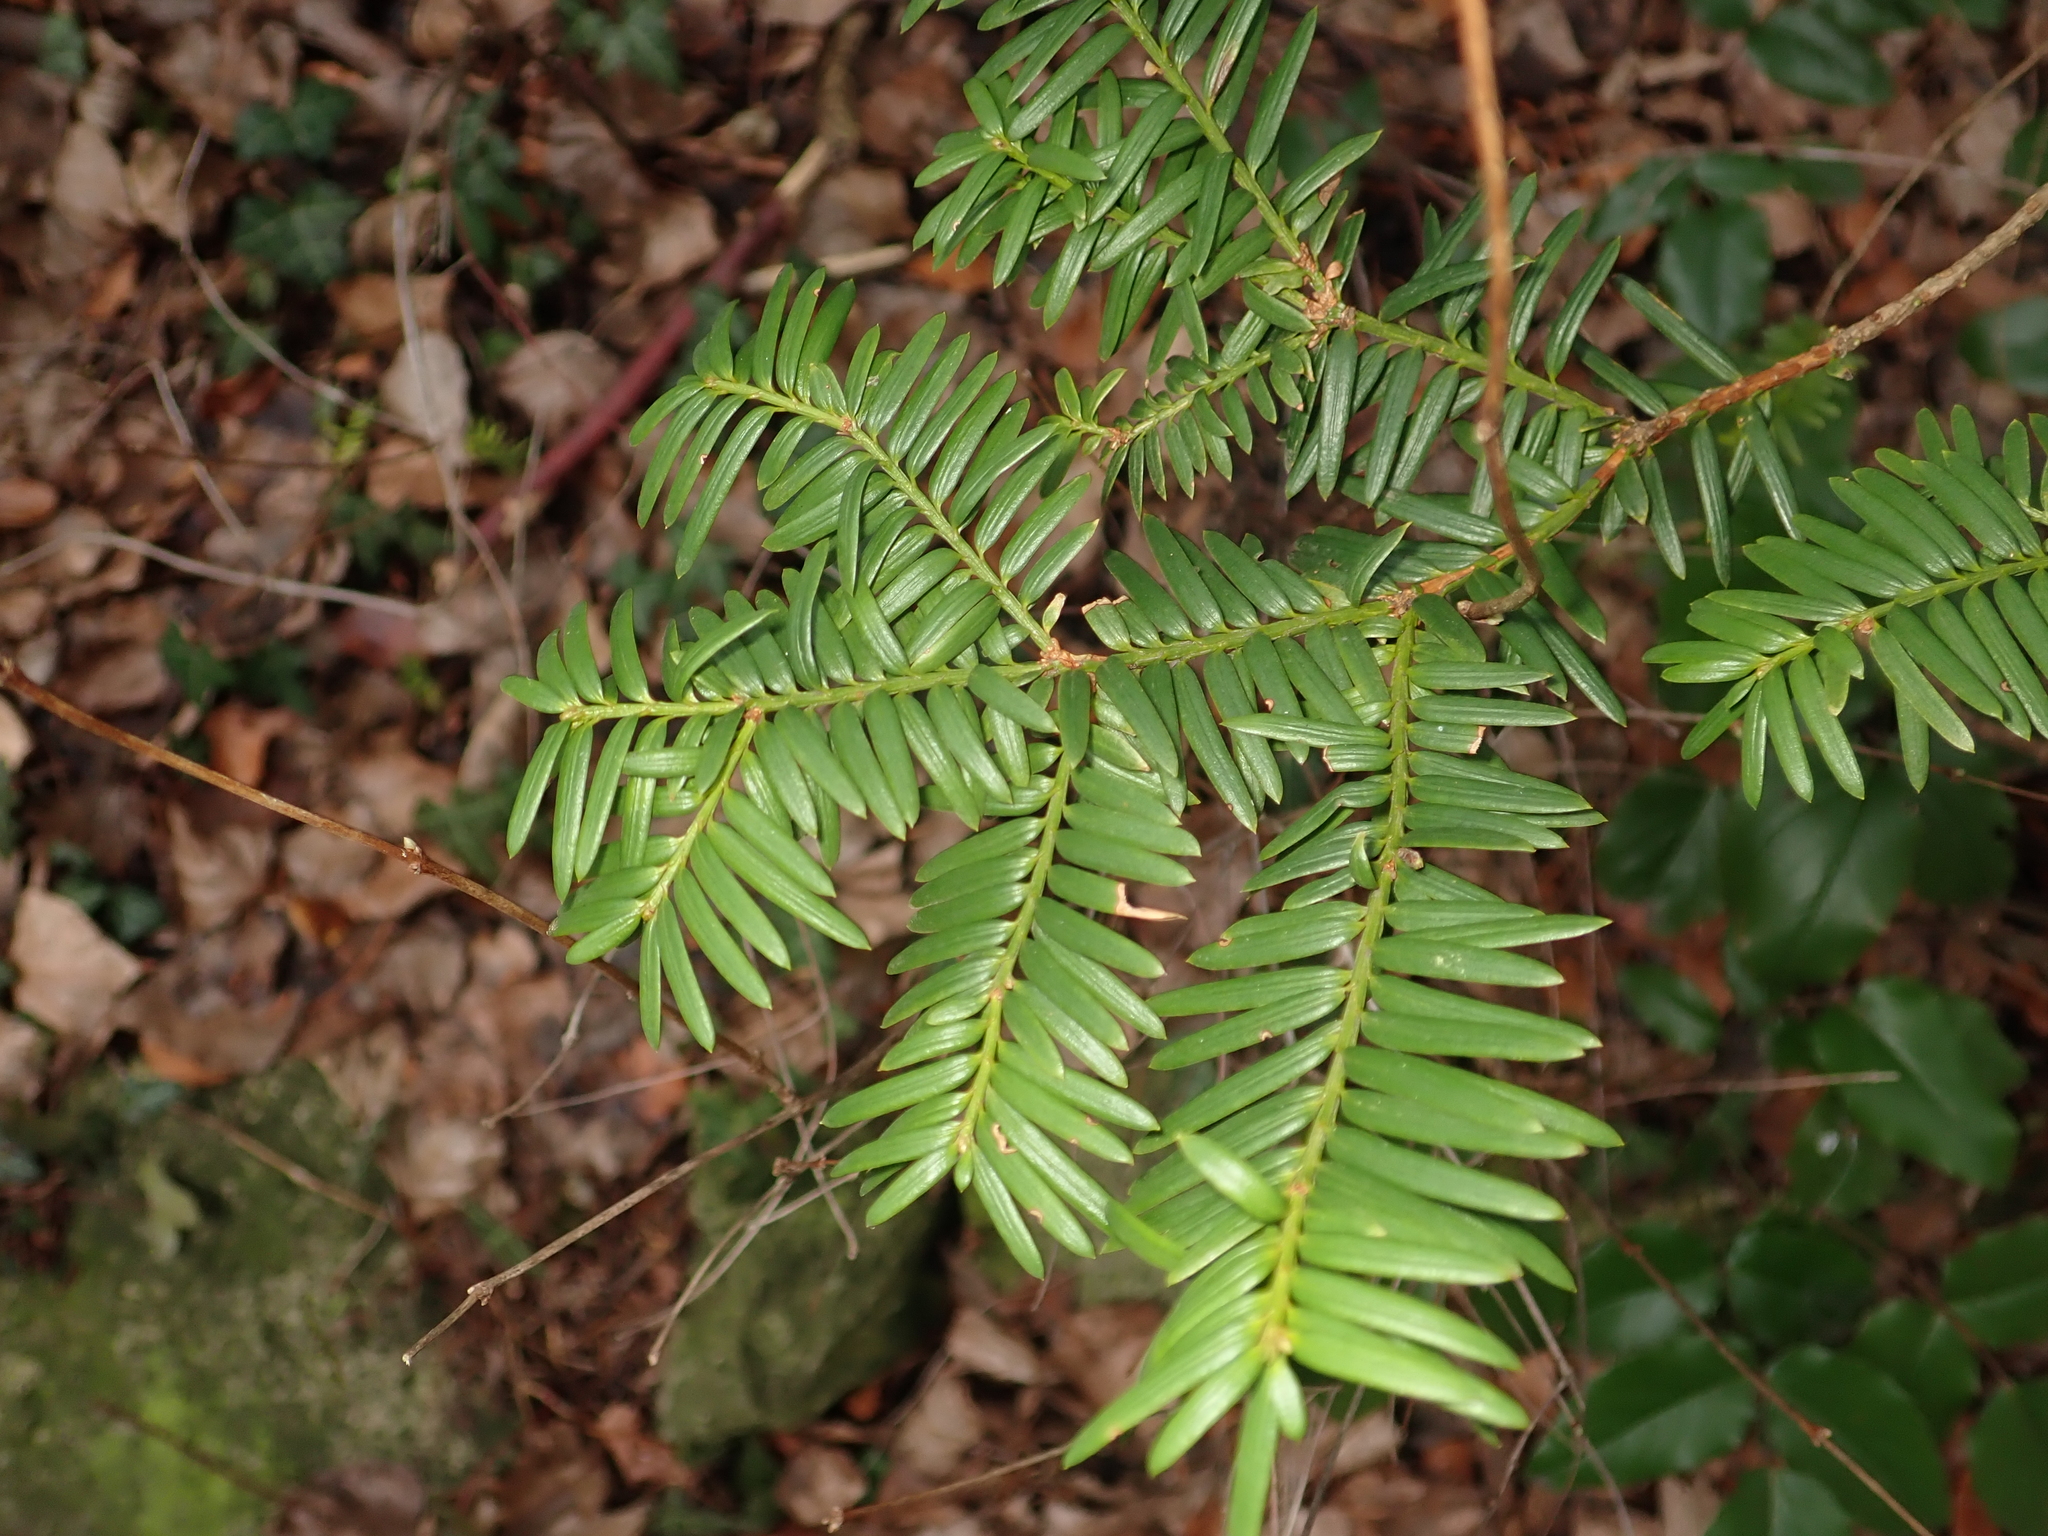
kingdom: Plantae
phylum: Tracheophyta
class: Pinopsida
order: Pinales
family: Taxaceae
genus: Taxus
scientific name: Taxus baccata
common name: Yew
